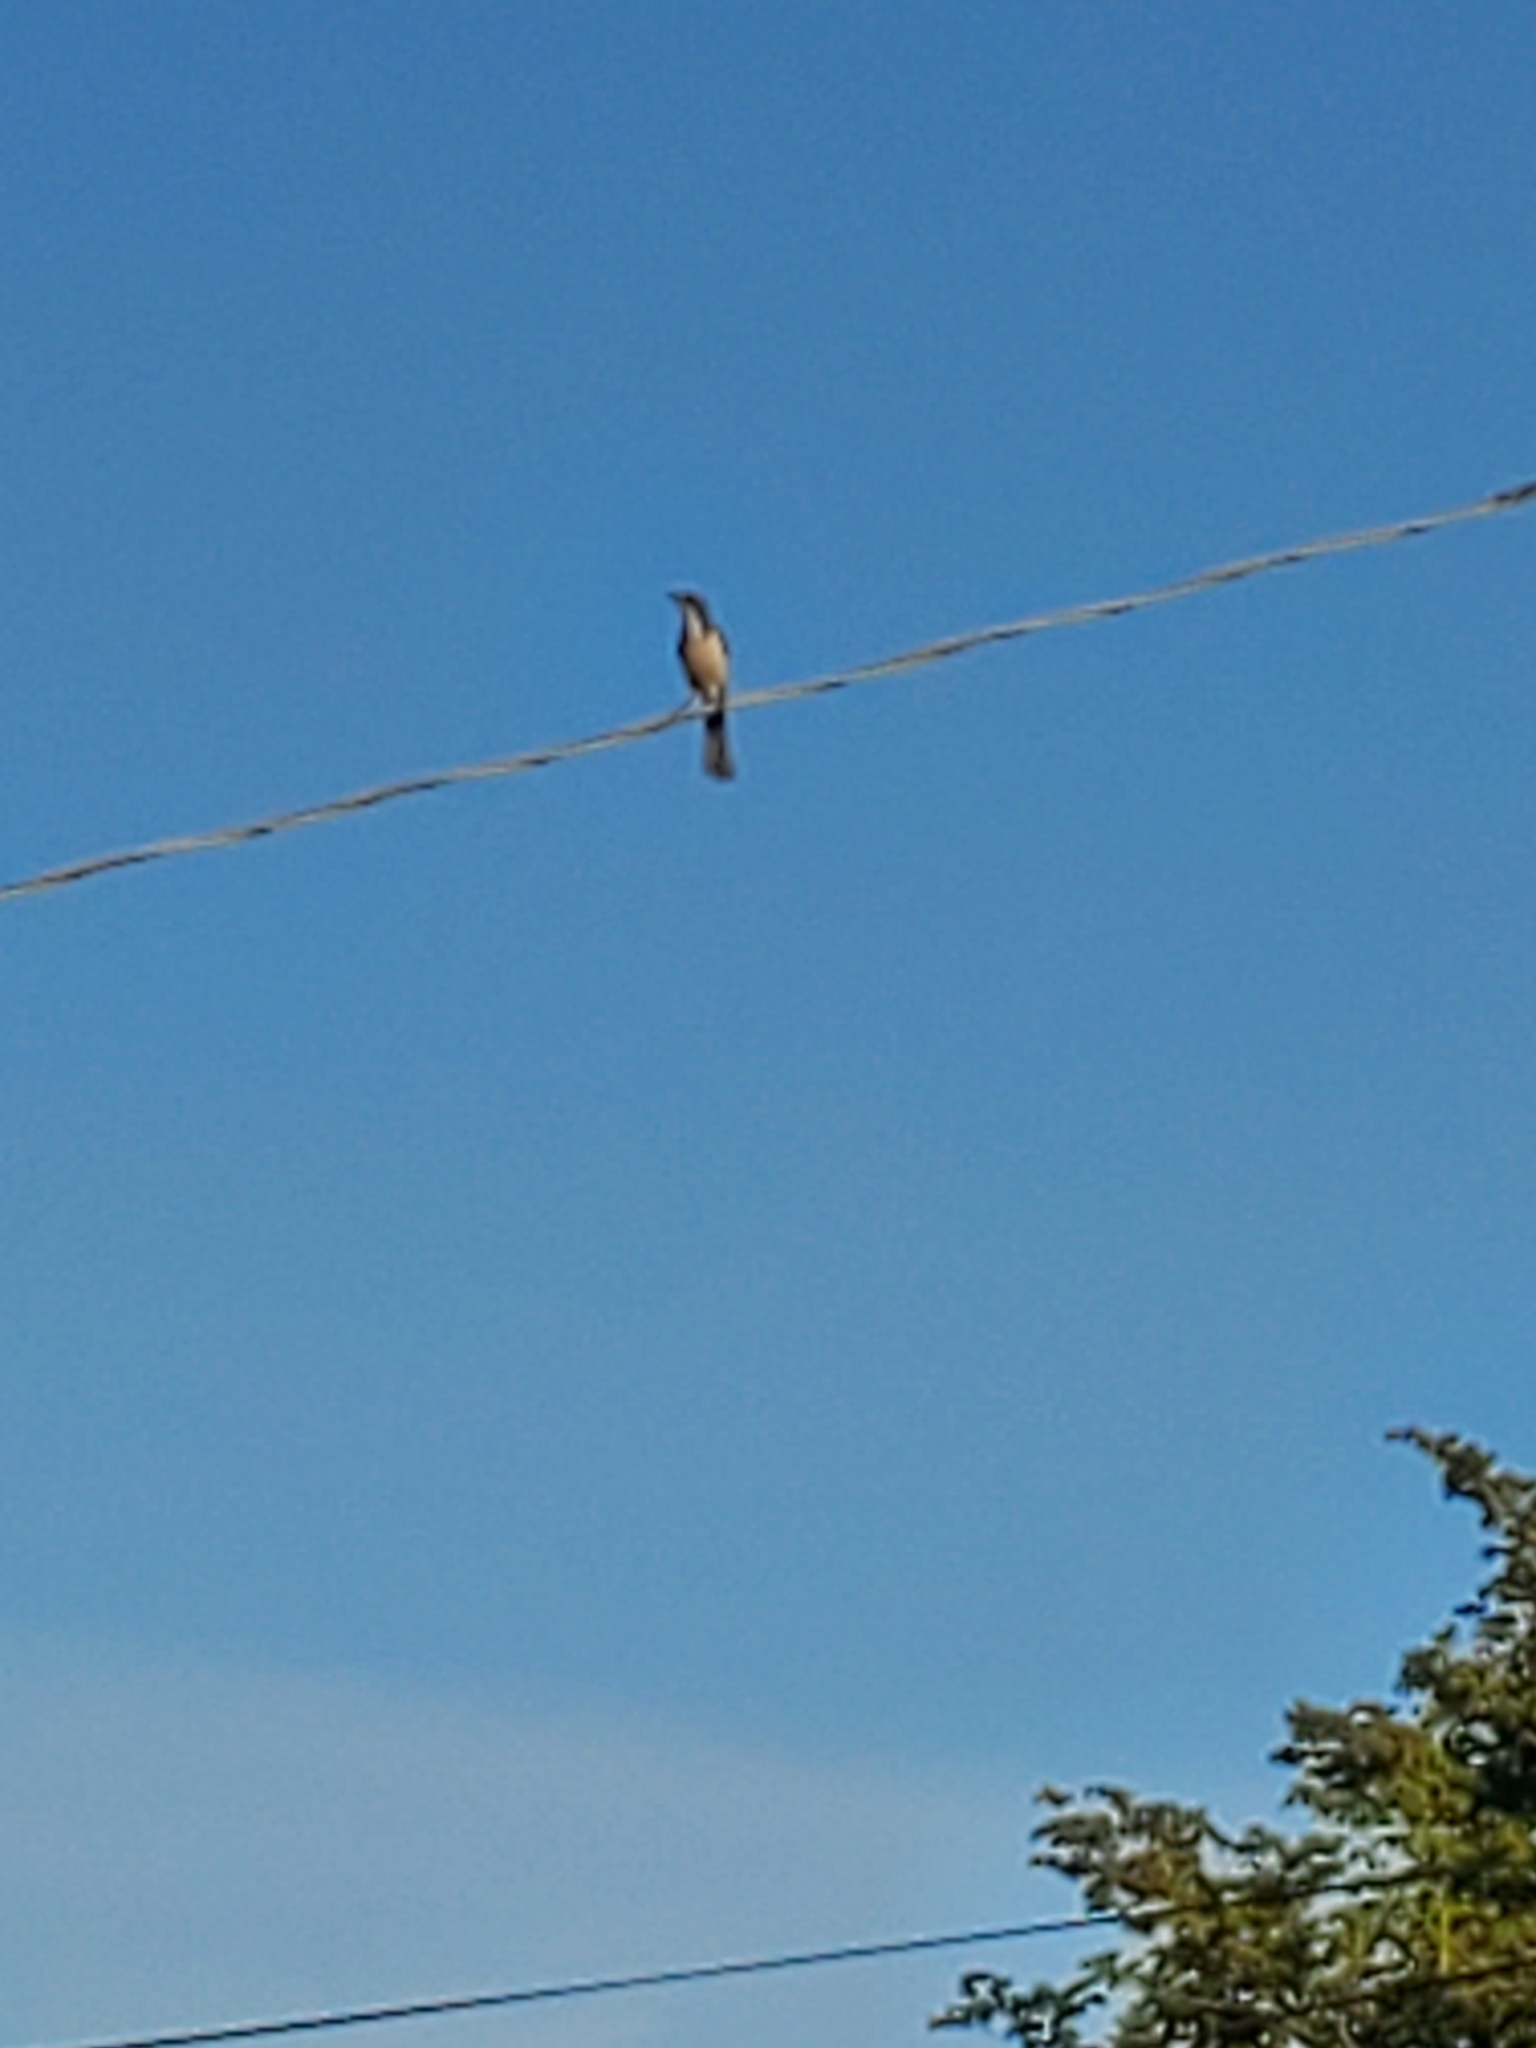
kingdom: Animalia
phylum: Chordata
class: Aves
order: Passeriformes
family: Corvidae
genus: Aphelocoma
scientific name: Aphelocoma californica
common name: California scrub-jay
